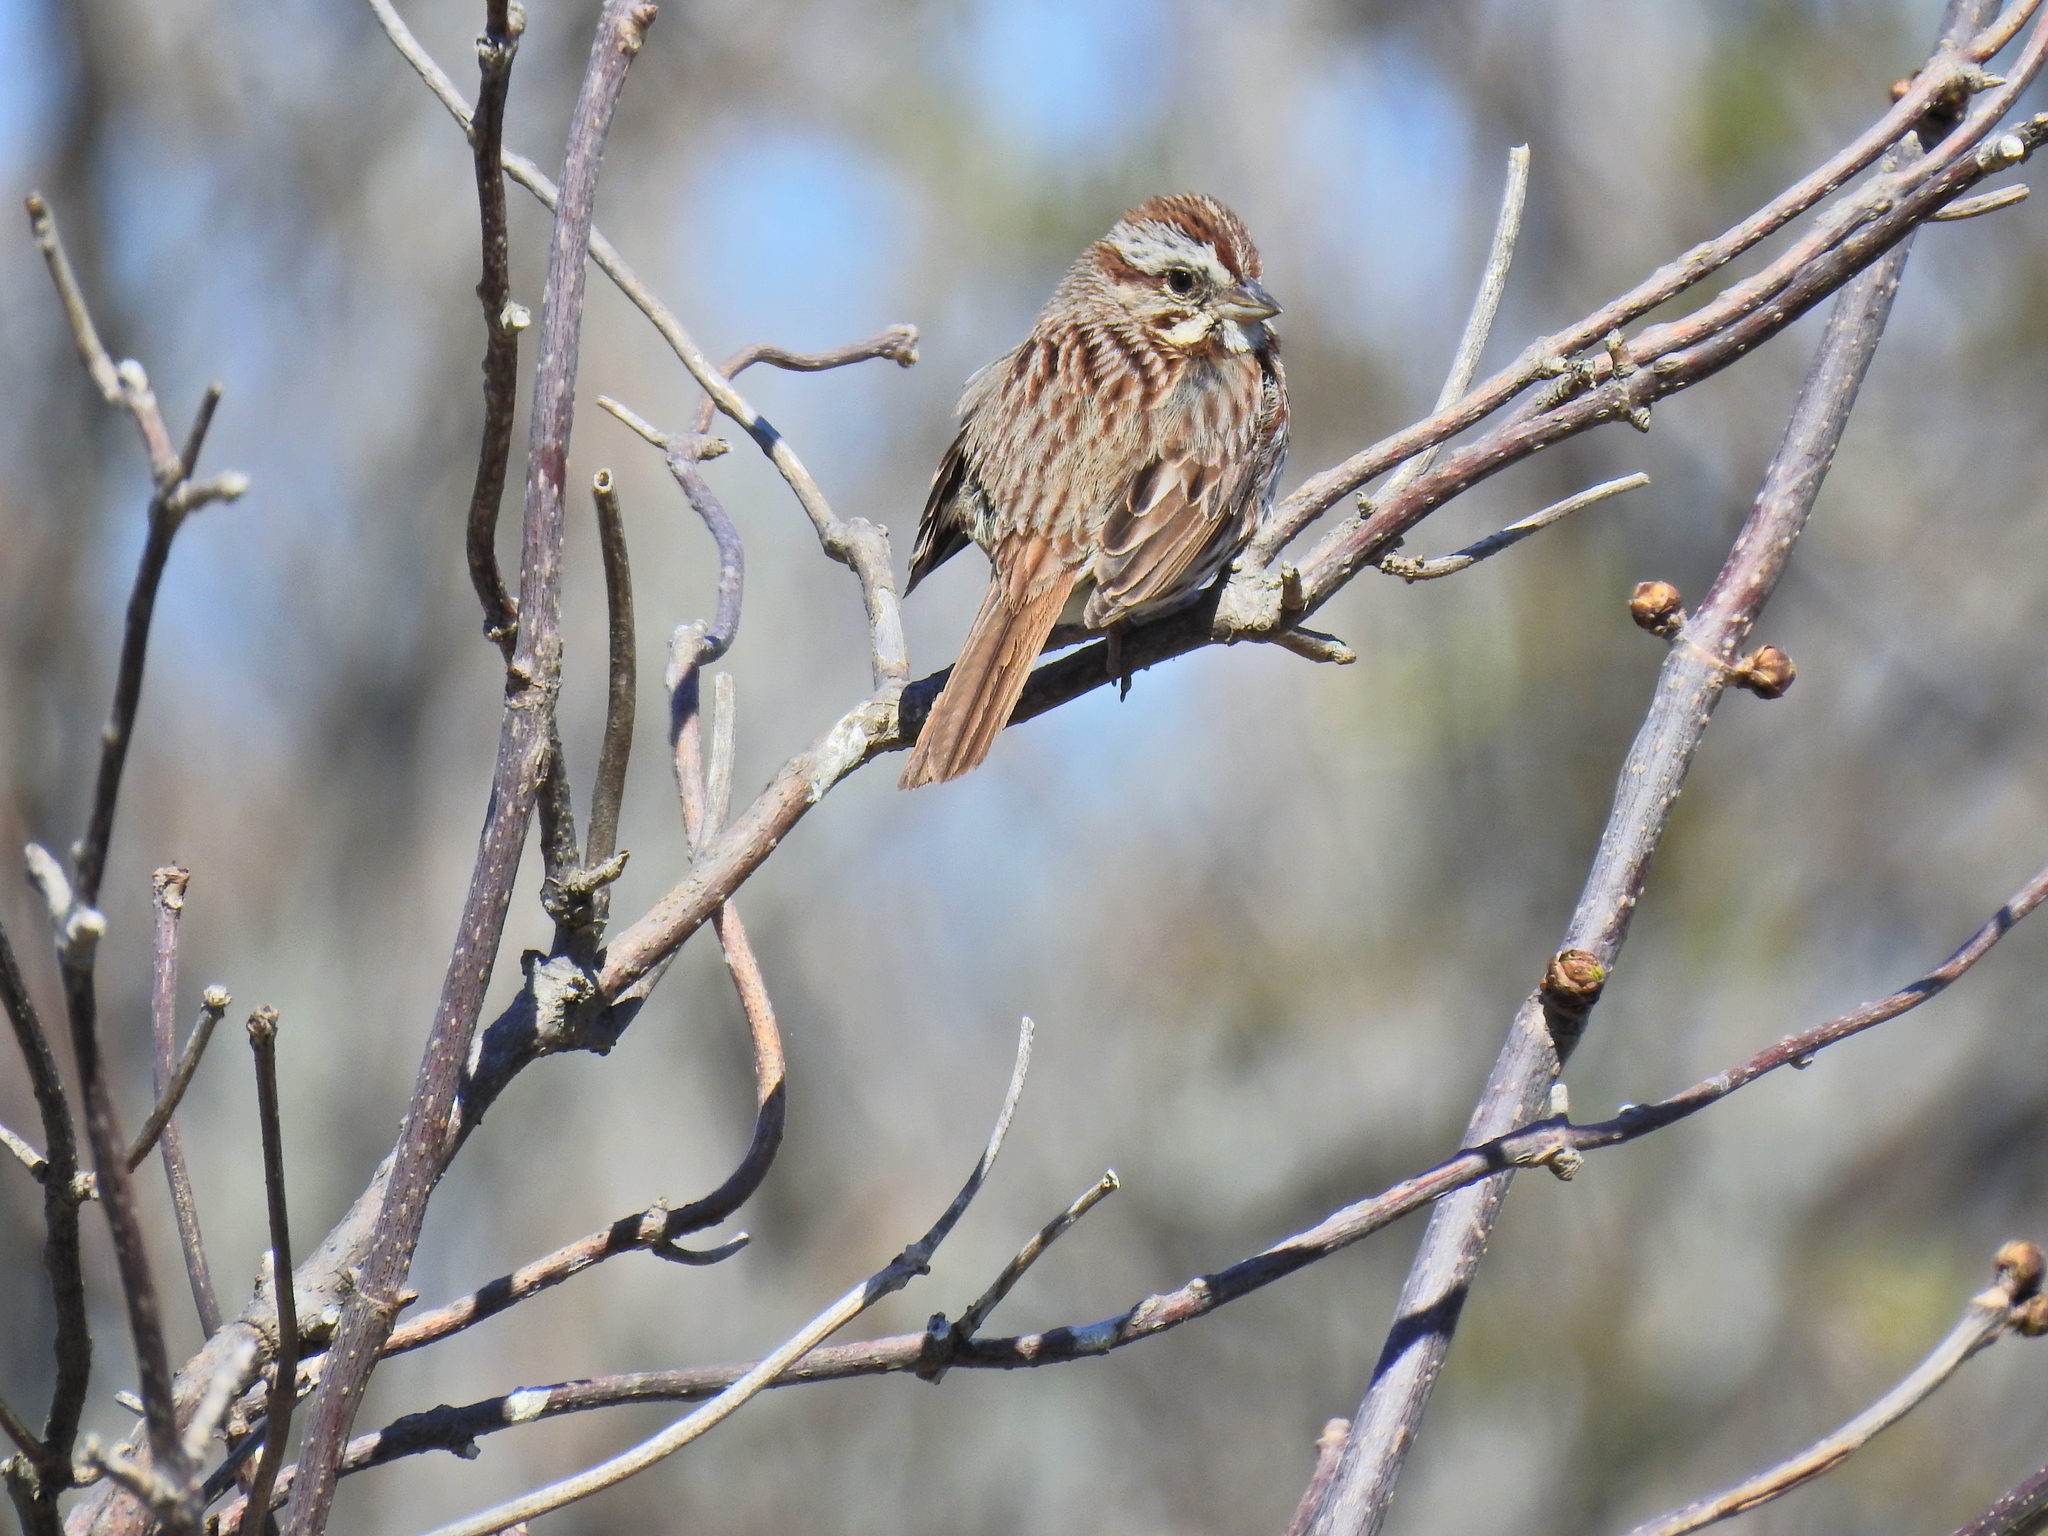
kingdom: Animalia
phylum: Chordata
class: Aves
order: Passeriformes
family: Passerellidae
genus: Melospiza
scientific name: Melospiza melodia
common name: Song sparrow
